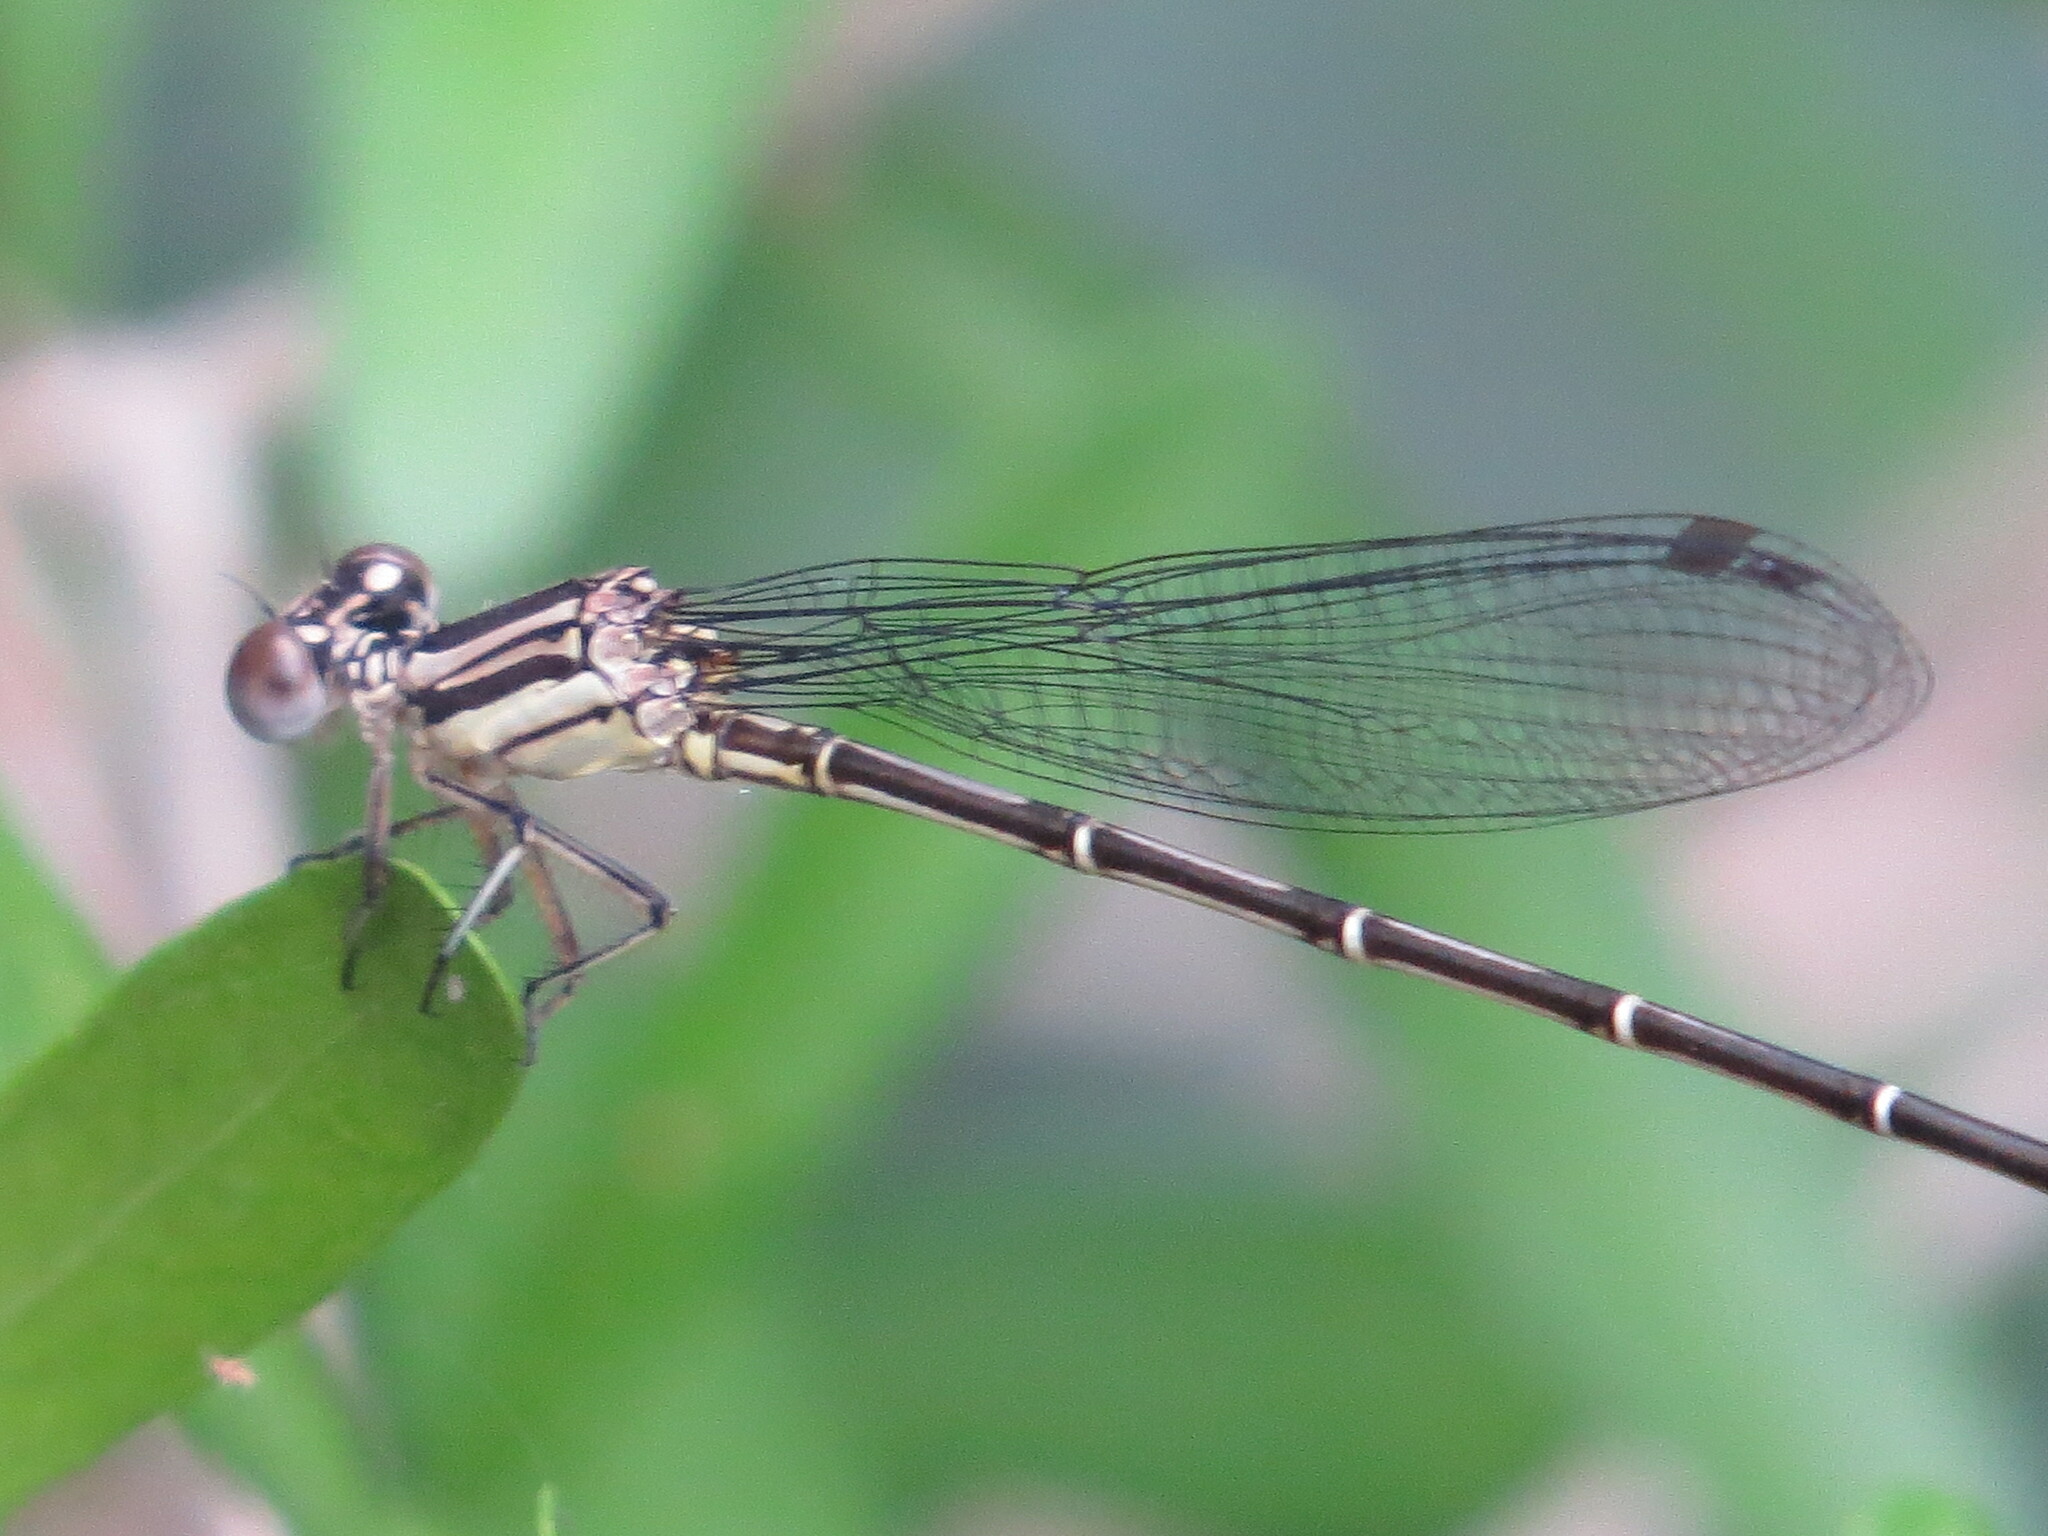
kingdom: Animalia
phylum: Arthropoda
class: Insecta
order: Odonata
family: Coenagrionidae
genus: Argia
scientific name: Argia translata
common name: Dusky dancer
